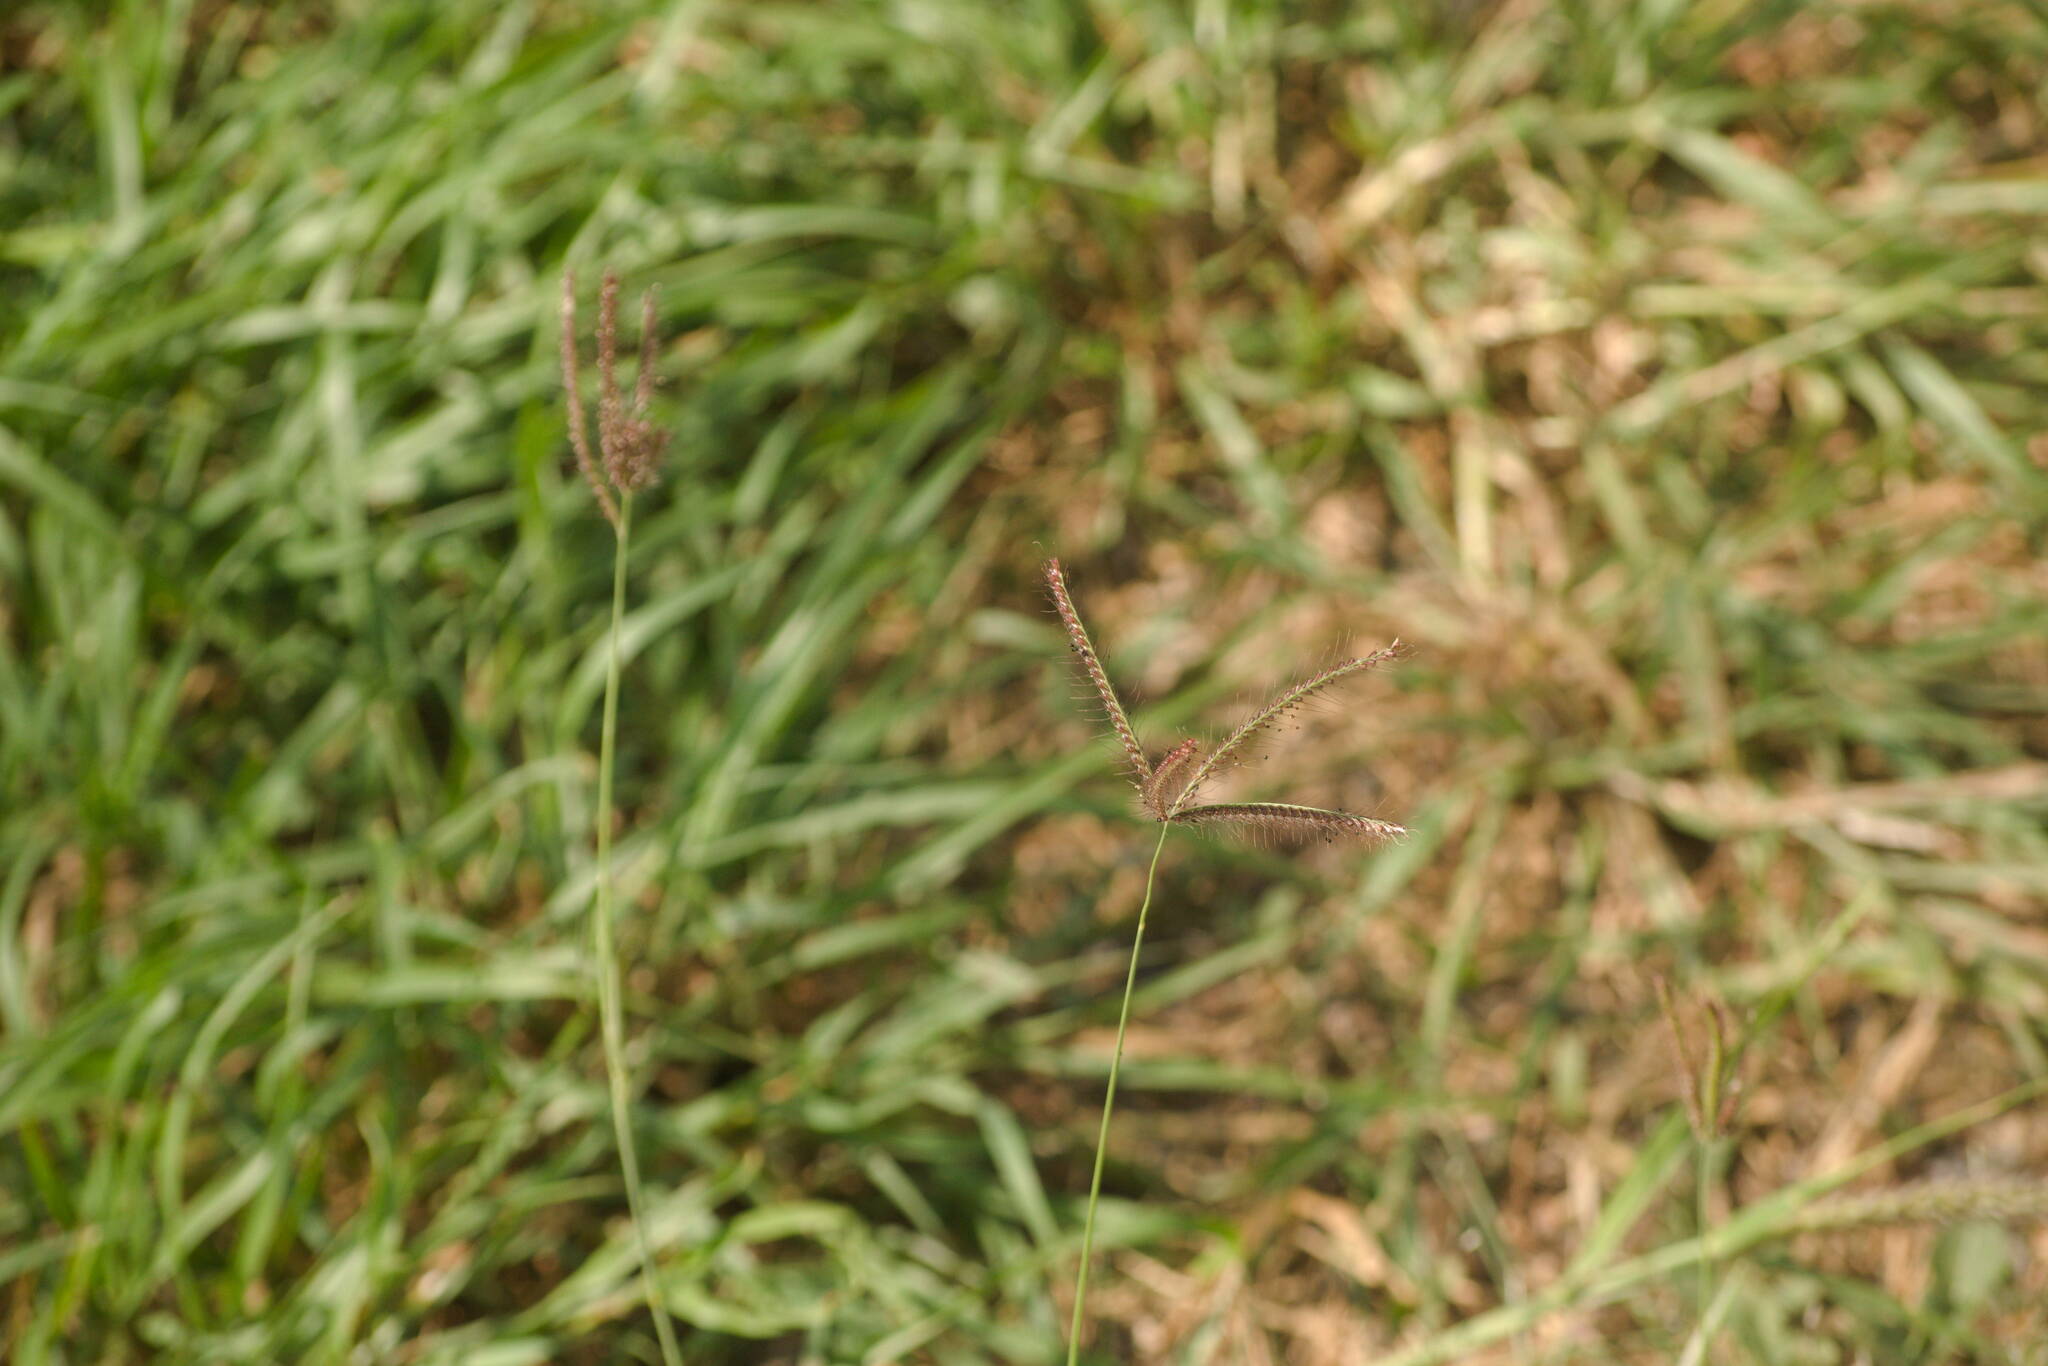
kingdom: Plantae
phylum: Tracheophyta
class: Liliopsida
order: Poales
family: Poaceae
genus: Chloris
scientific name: Chloris barbata
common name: Swollen fingergrass
